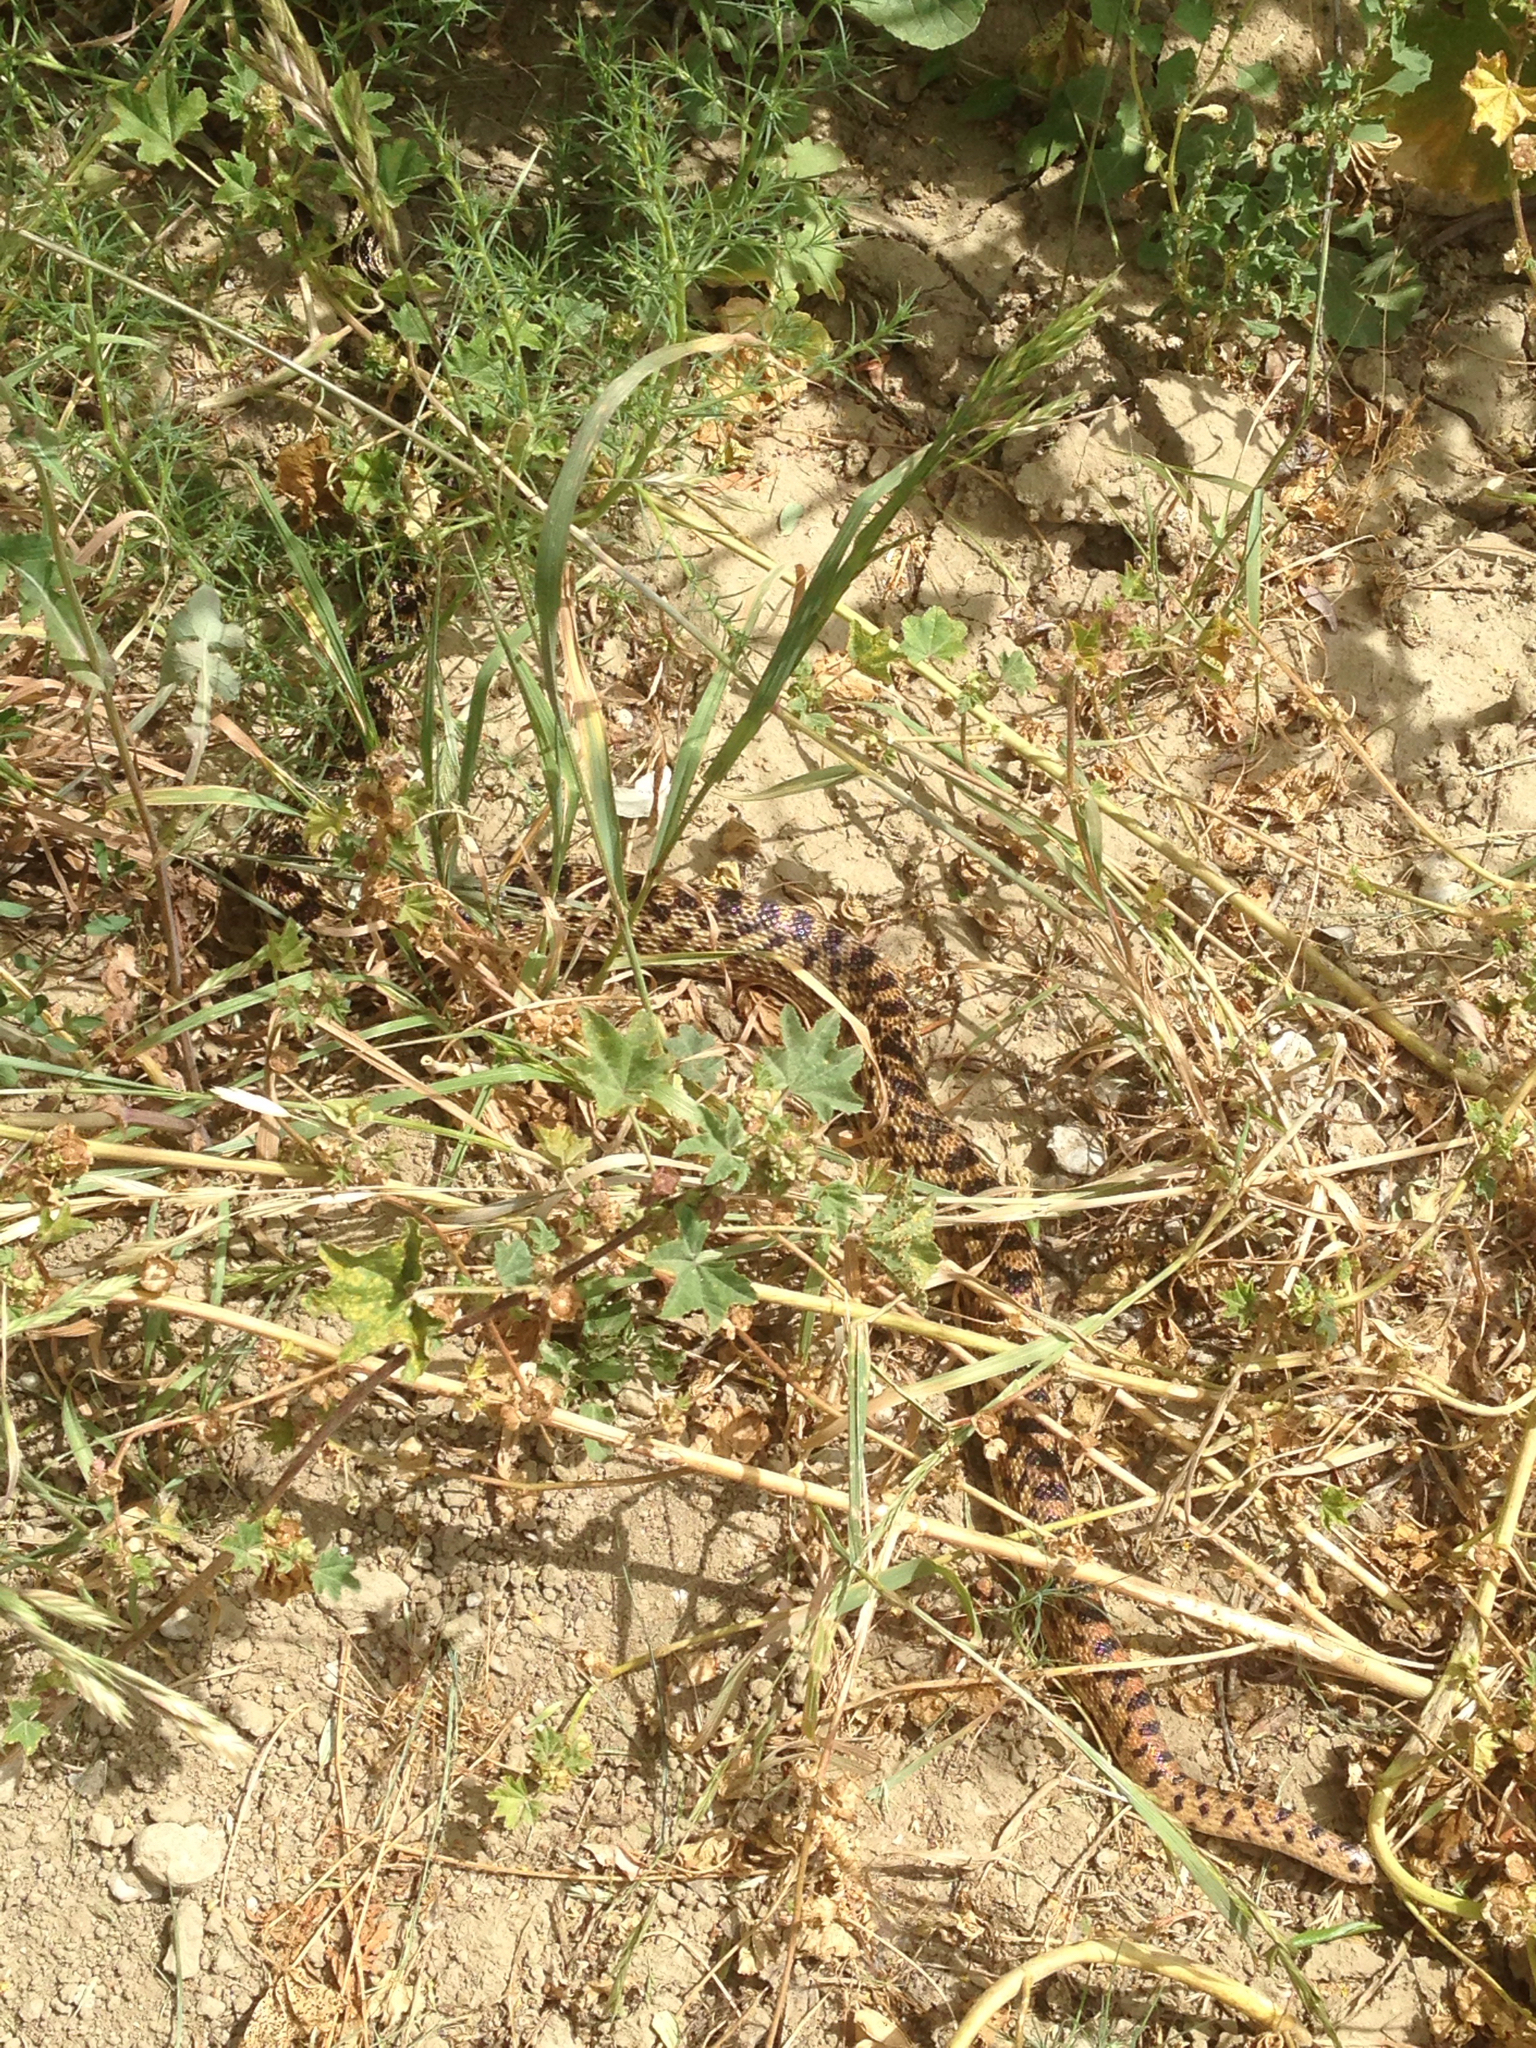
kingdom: Animalia
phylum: Chordata
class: Squamata
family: Colubridae
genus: Pituophis
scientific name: Pituophis catenifer
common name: Gopher snake
